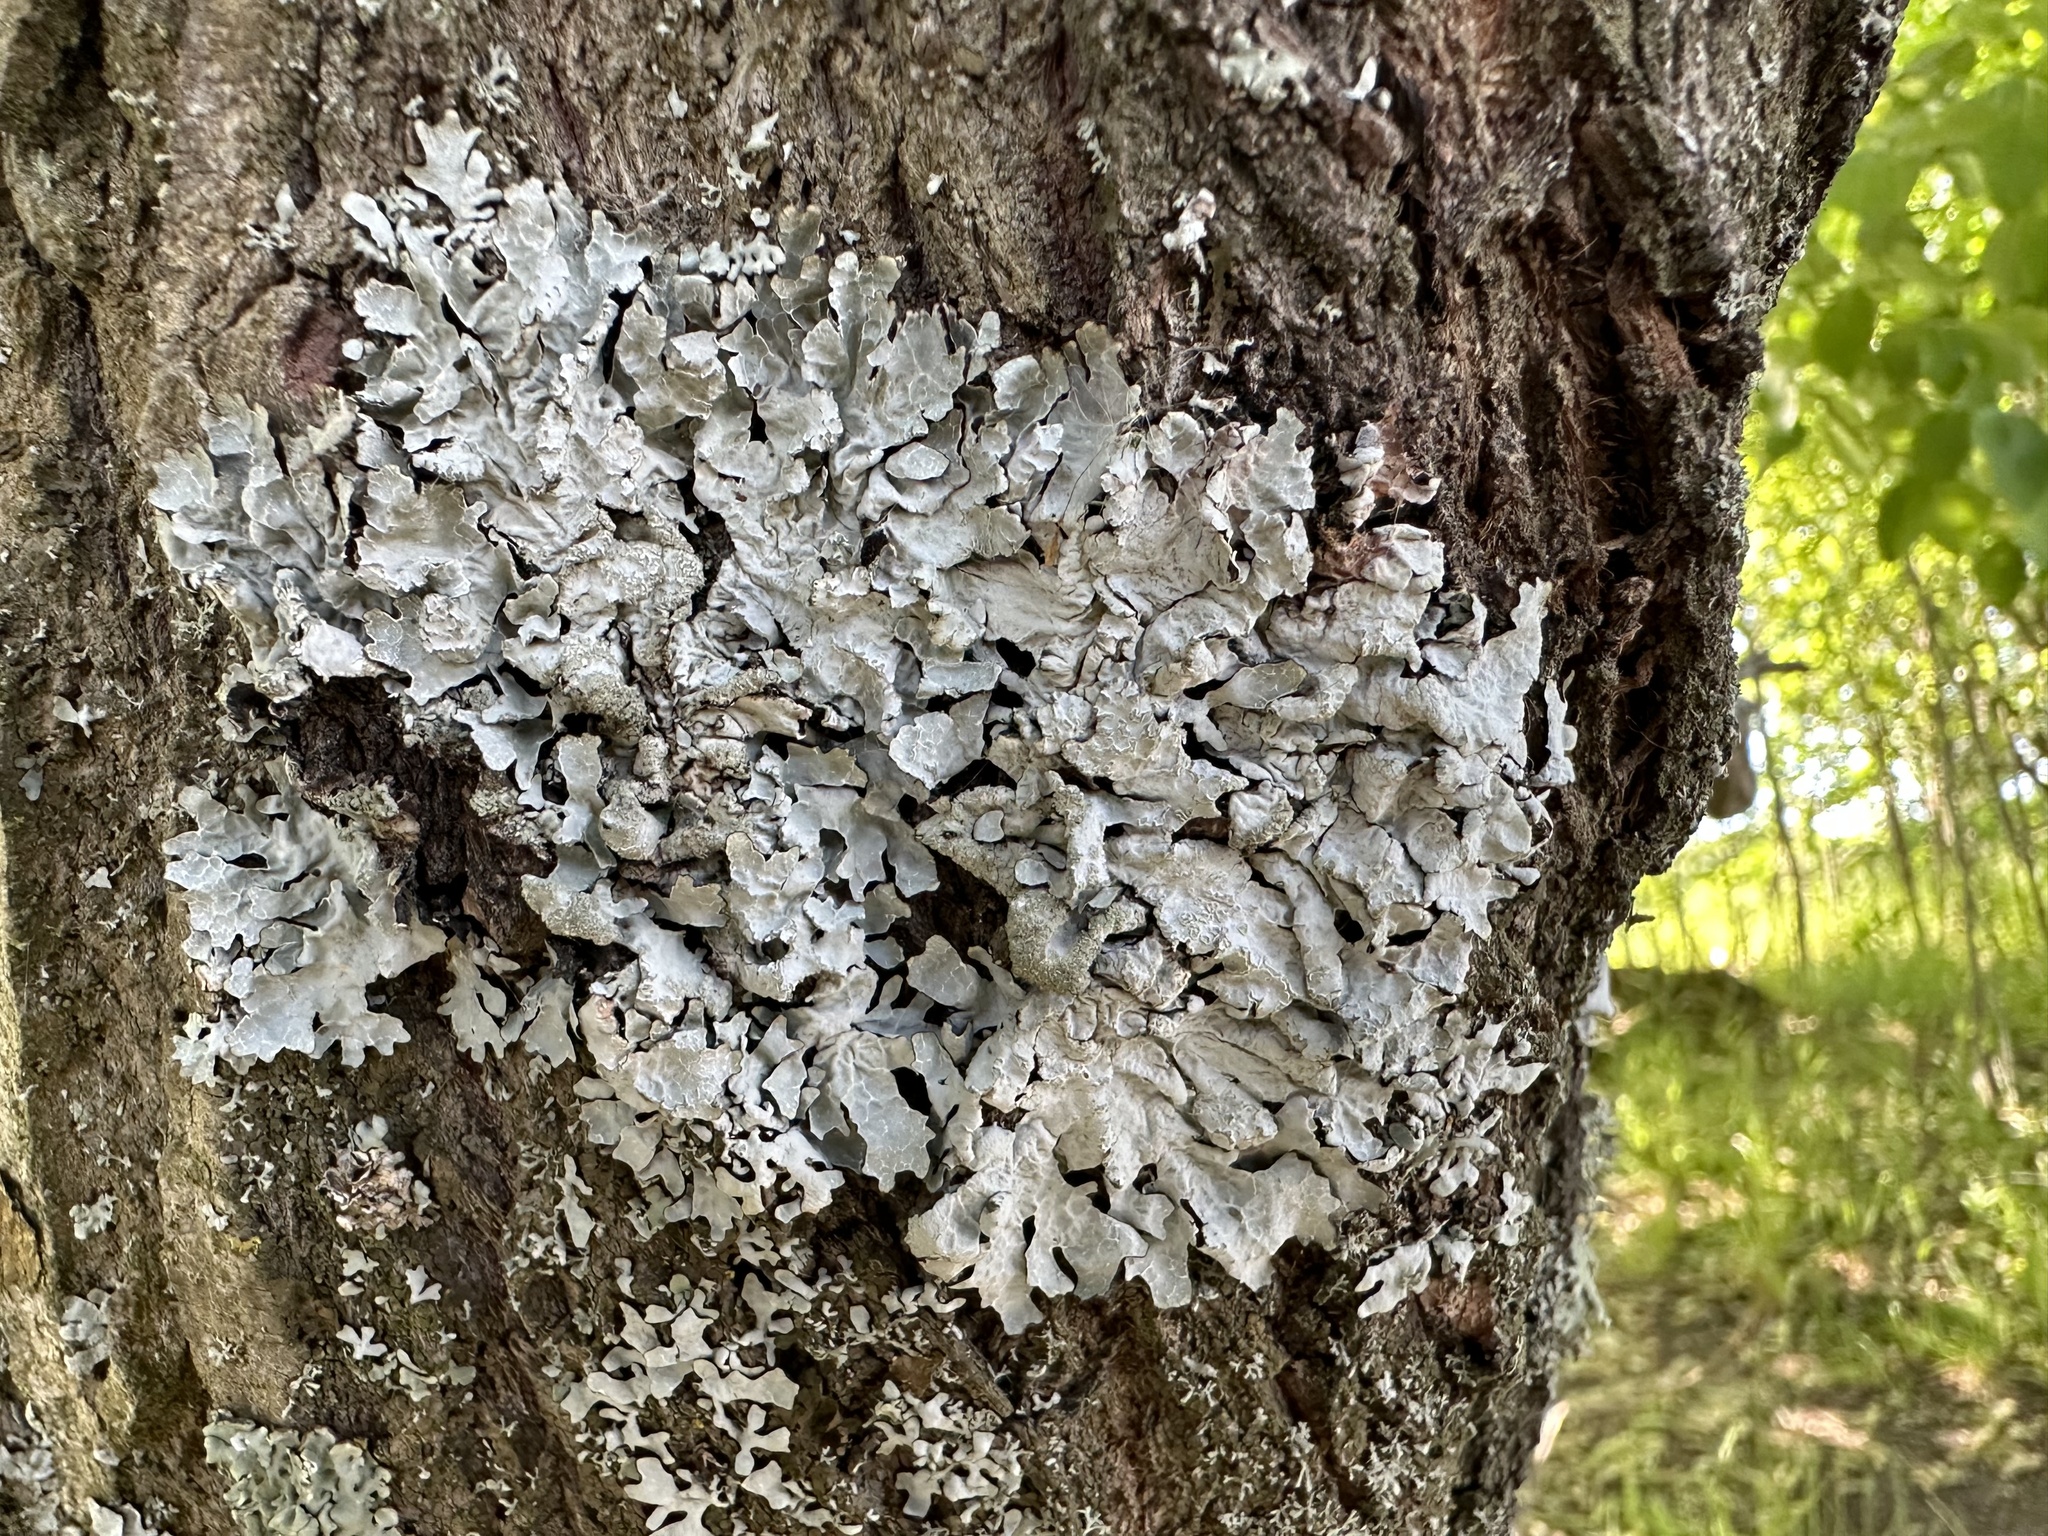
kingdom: Fungi
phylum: Ascomycota
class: Lecanoromycetes
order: Lecanorales
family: Parmeliaceae
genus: Parmelia
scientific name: Parmelia sulcata
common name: Netted shield lichen
